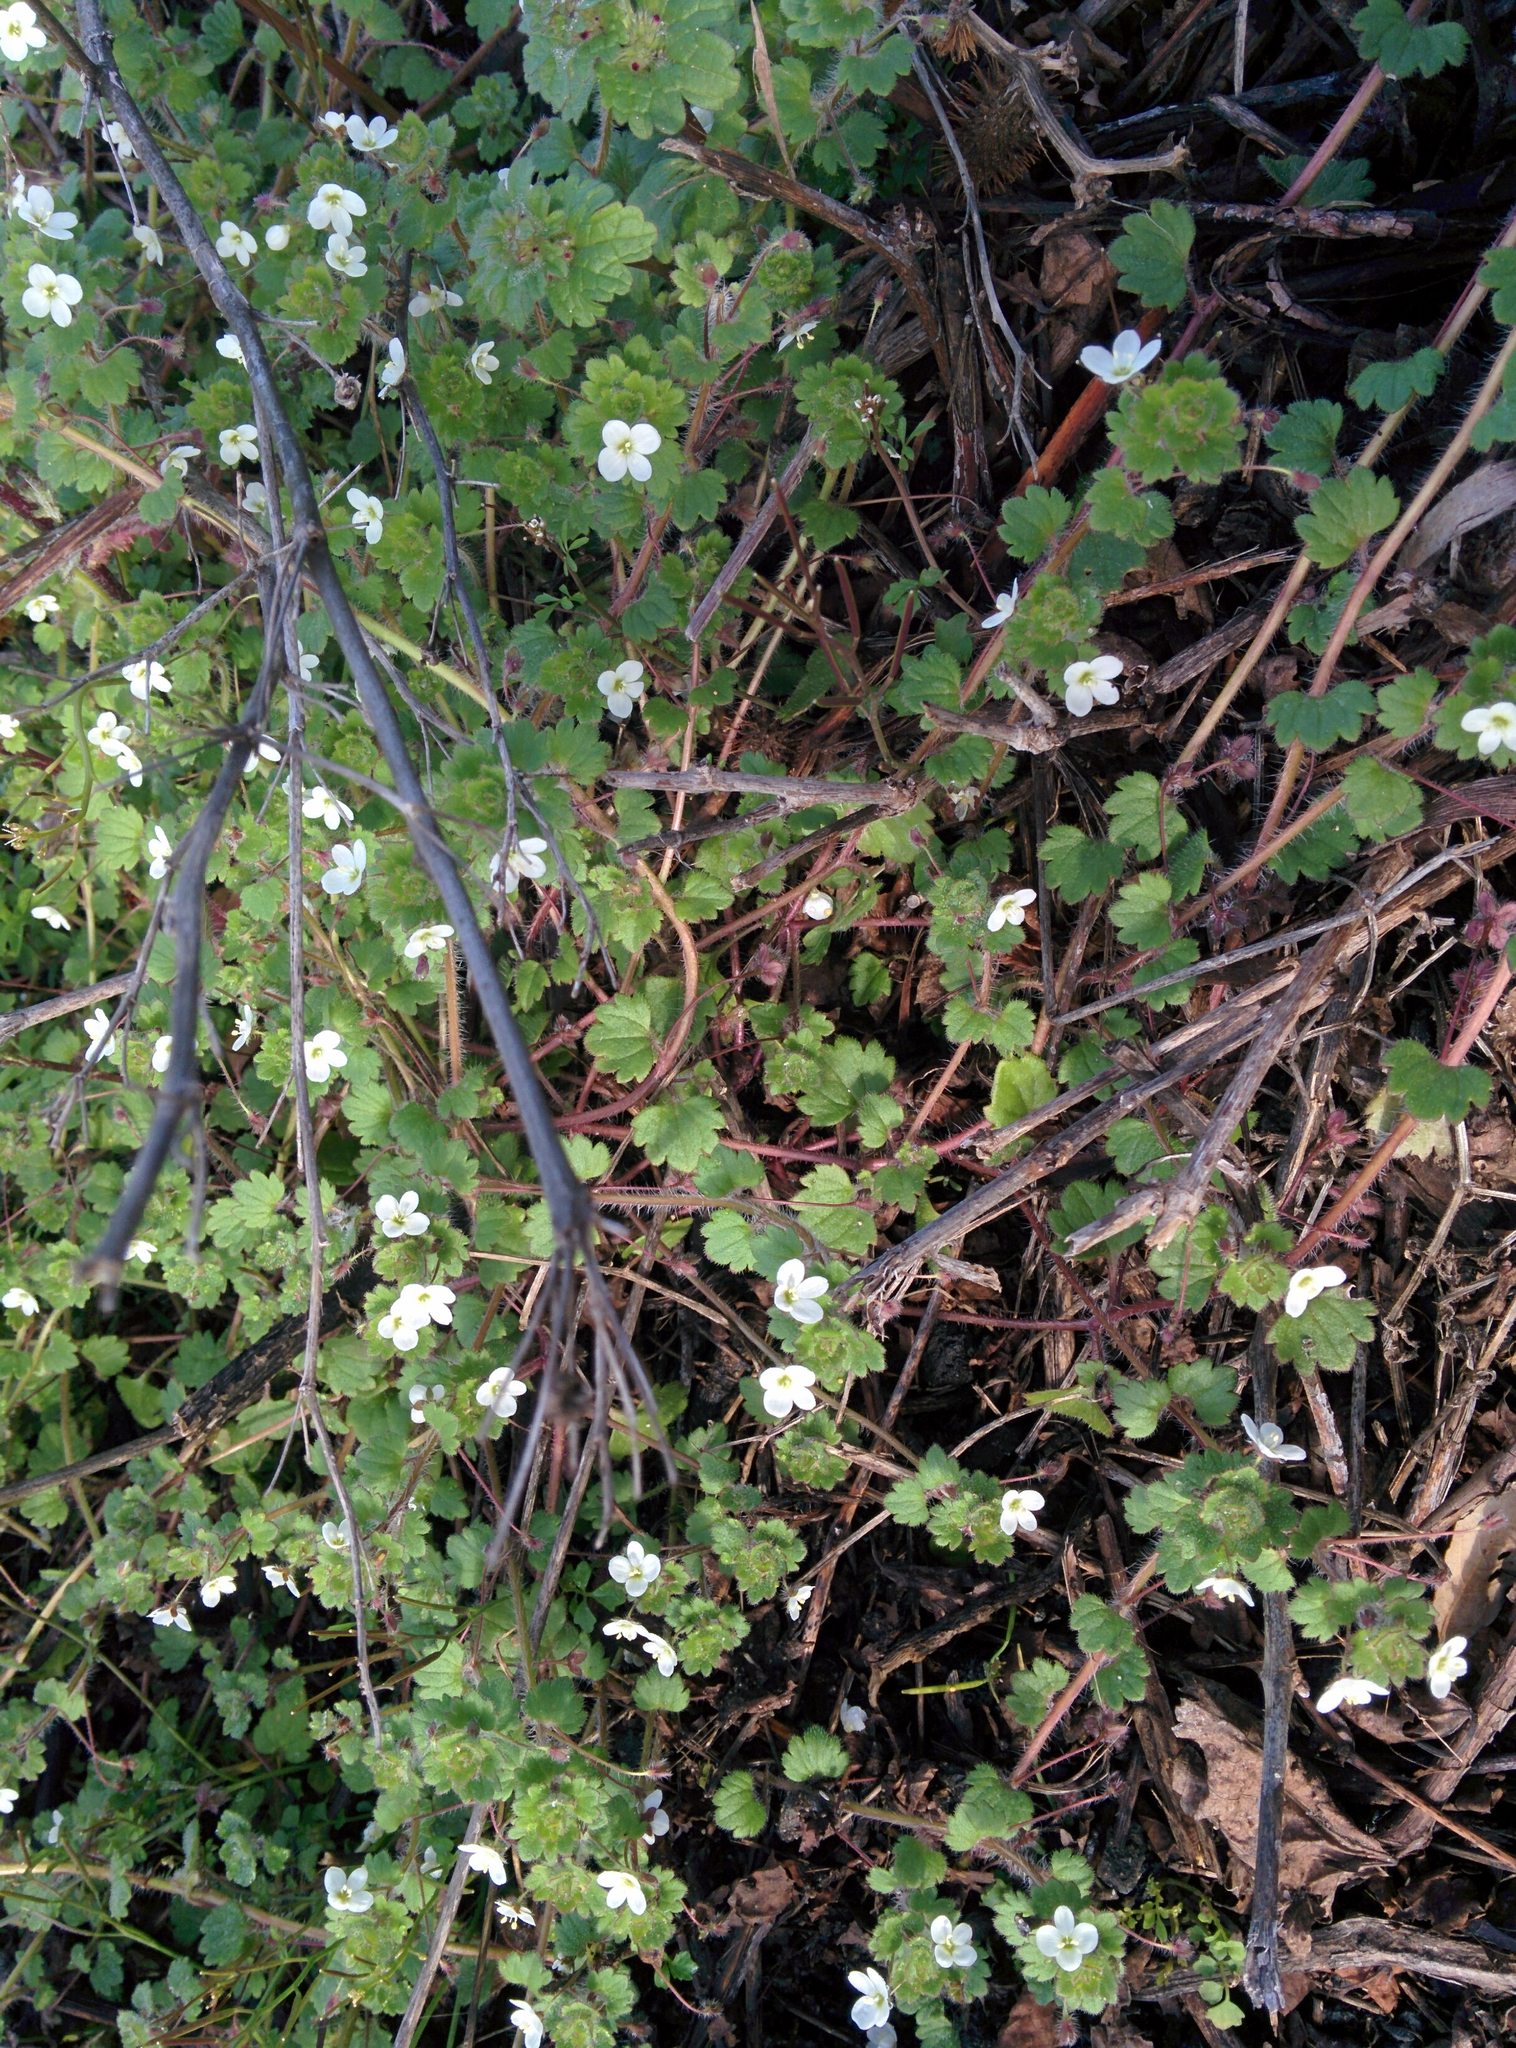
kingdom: Plantae
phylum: Tracheophyta
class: Magnoliopsida
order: Lamiales
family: Plantaginaceae
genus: Veronica
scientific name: Veronica cymbalaria
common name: Pale speedwell
